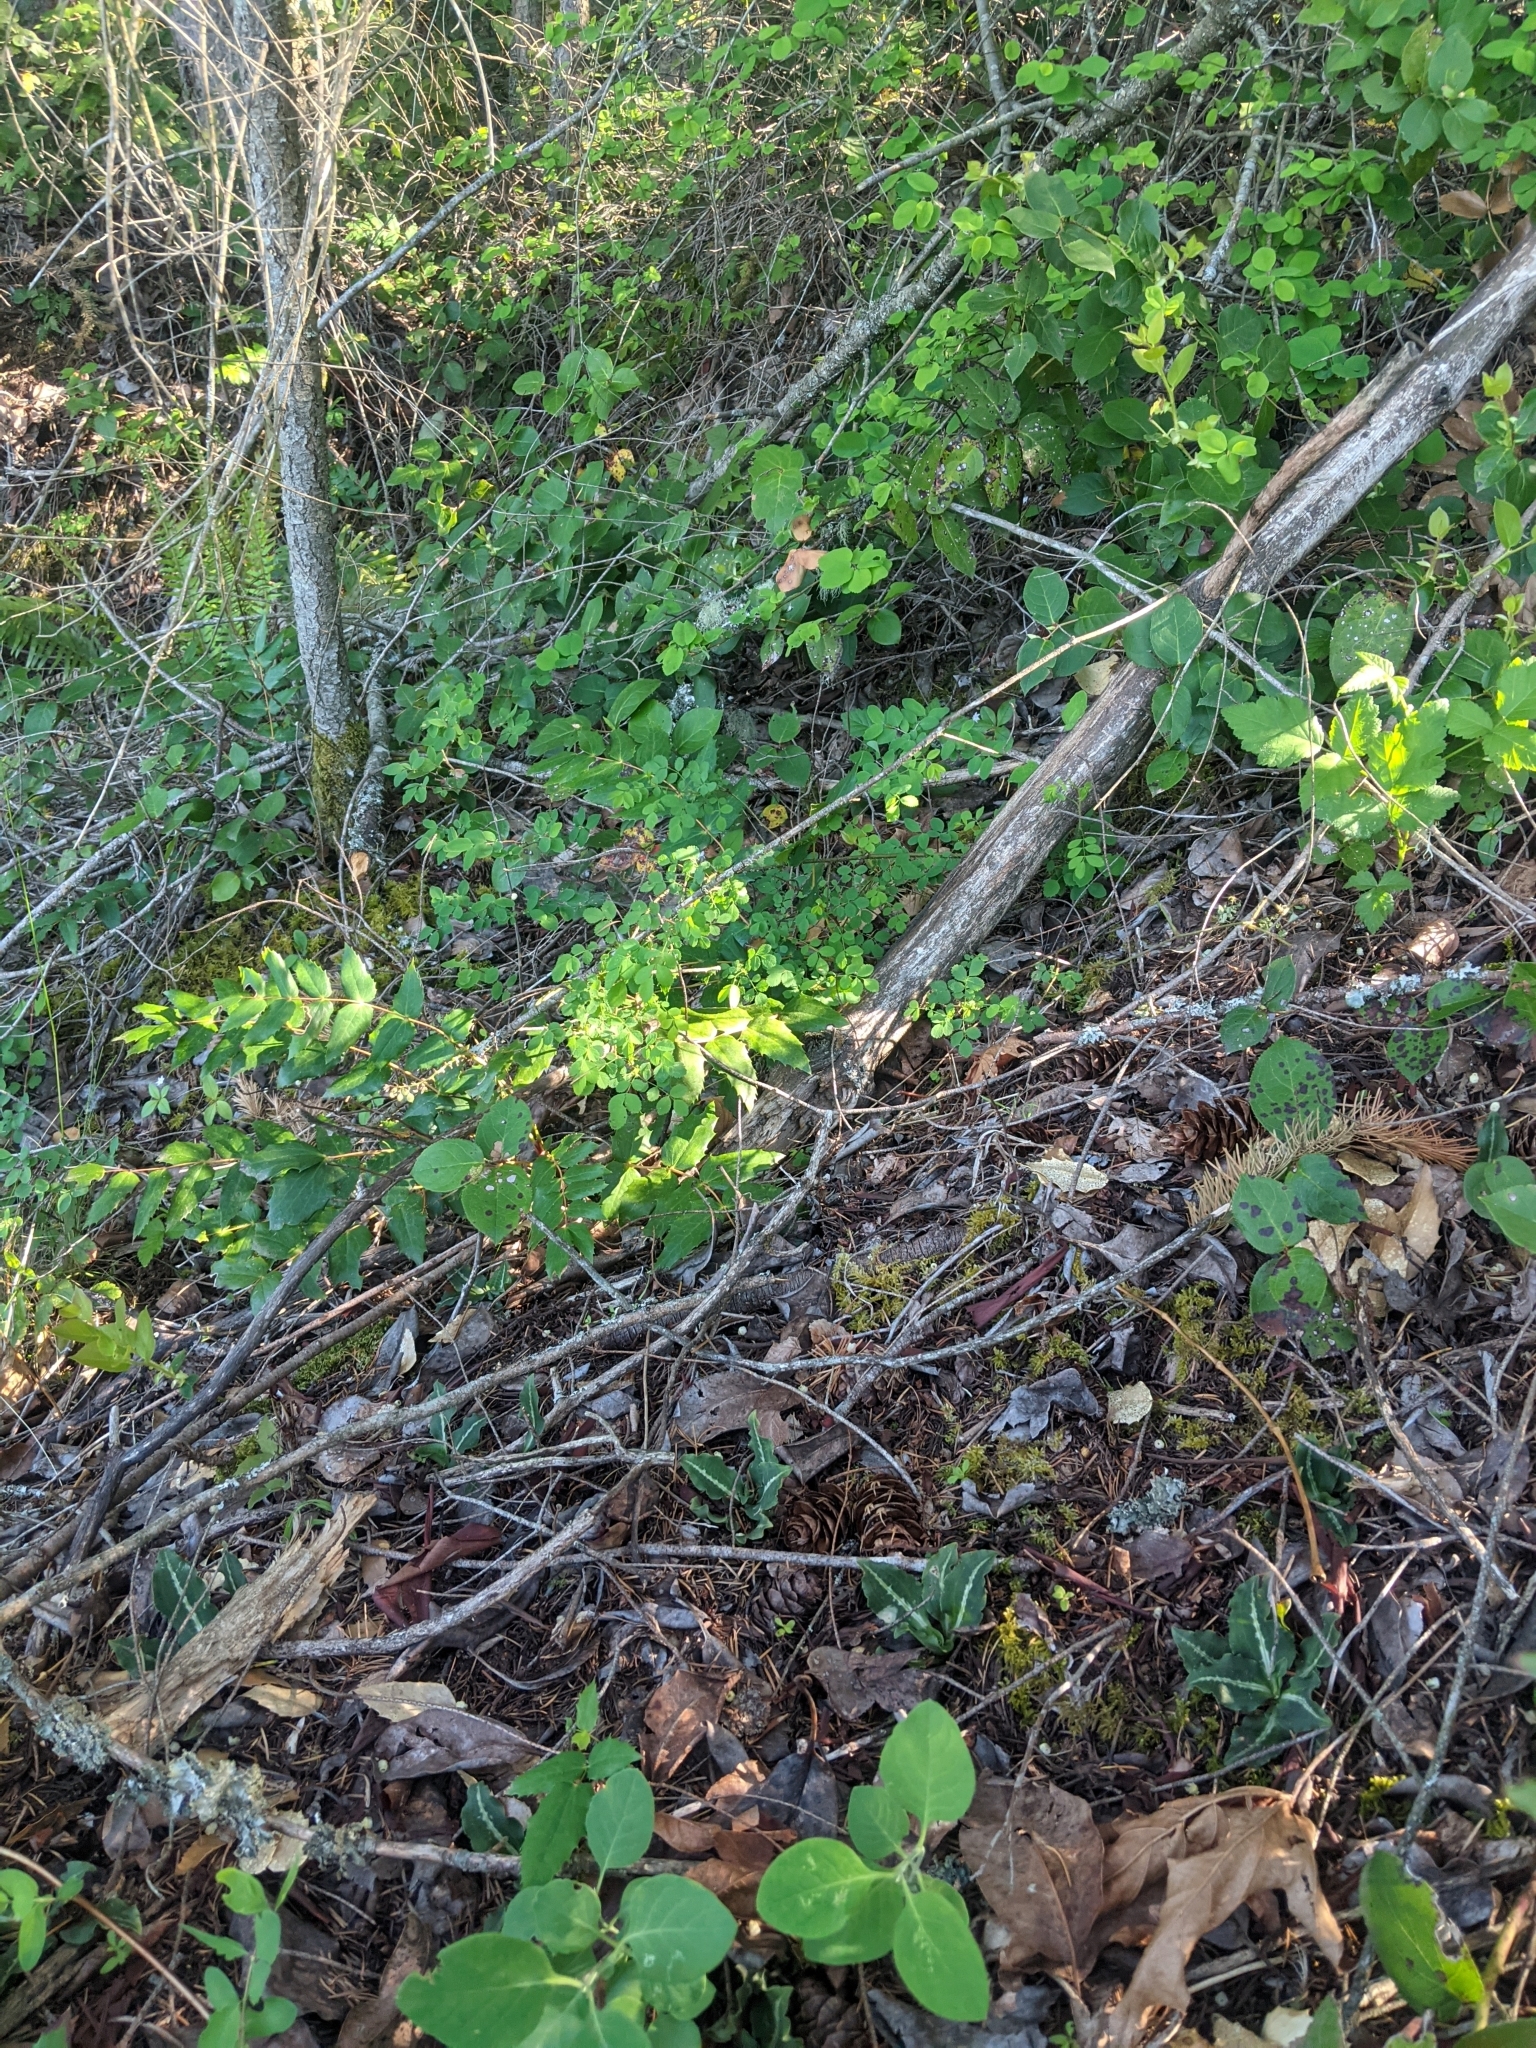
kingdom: Plantae
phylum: Tracheophyta
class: Liliopsida
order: Asparagales
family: Orchidaceae
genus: Goodyera
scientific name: Goodyera oblongifolia
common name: Giant rattlesnake-plantain
